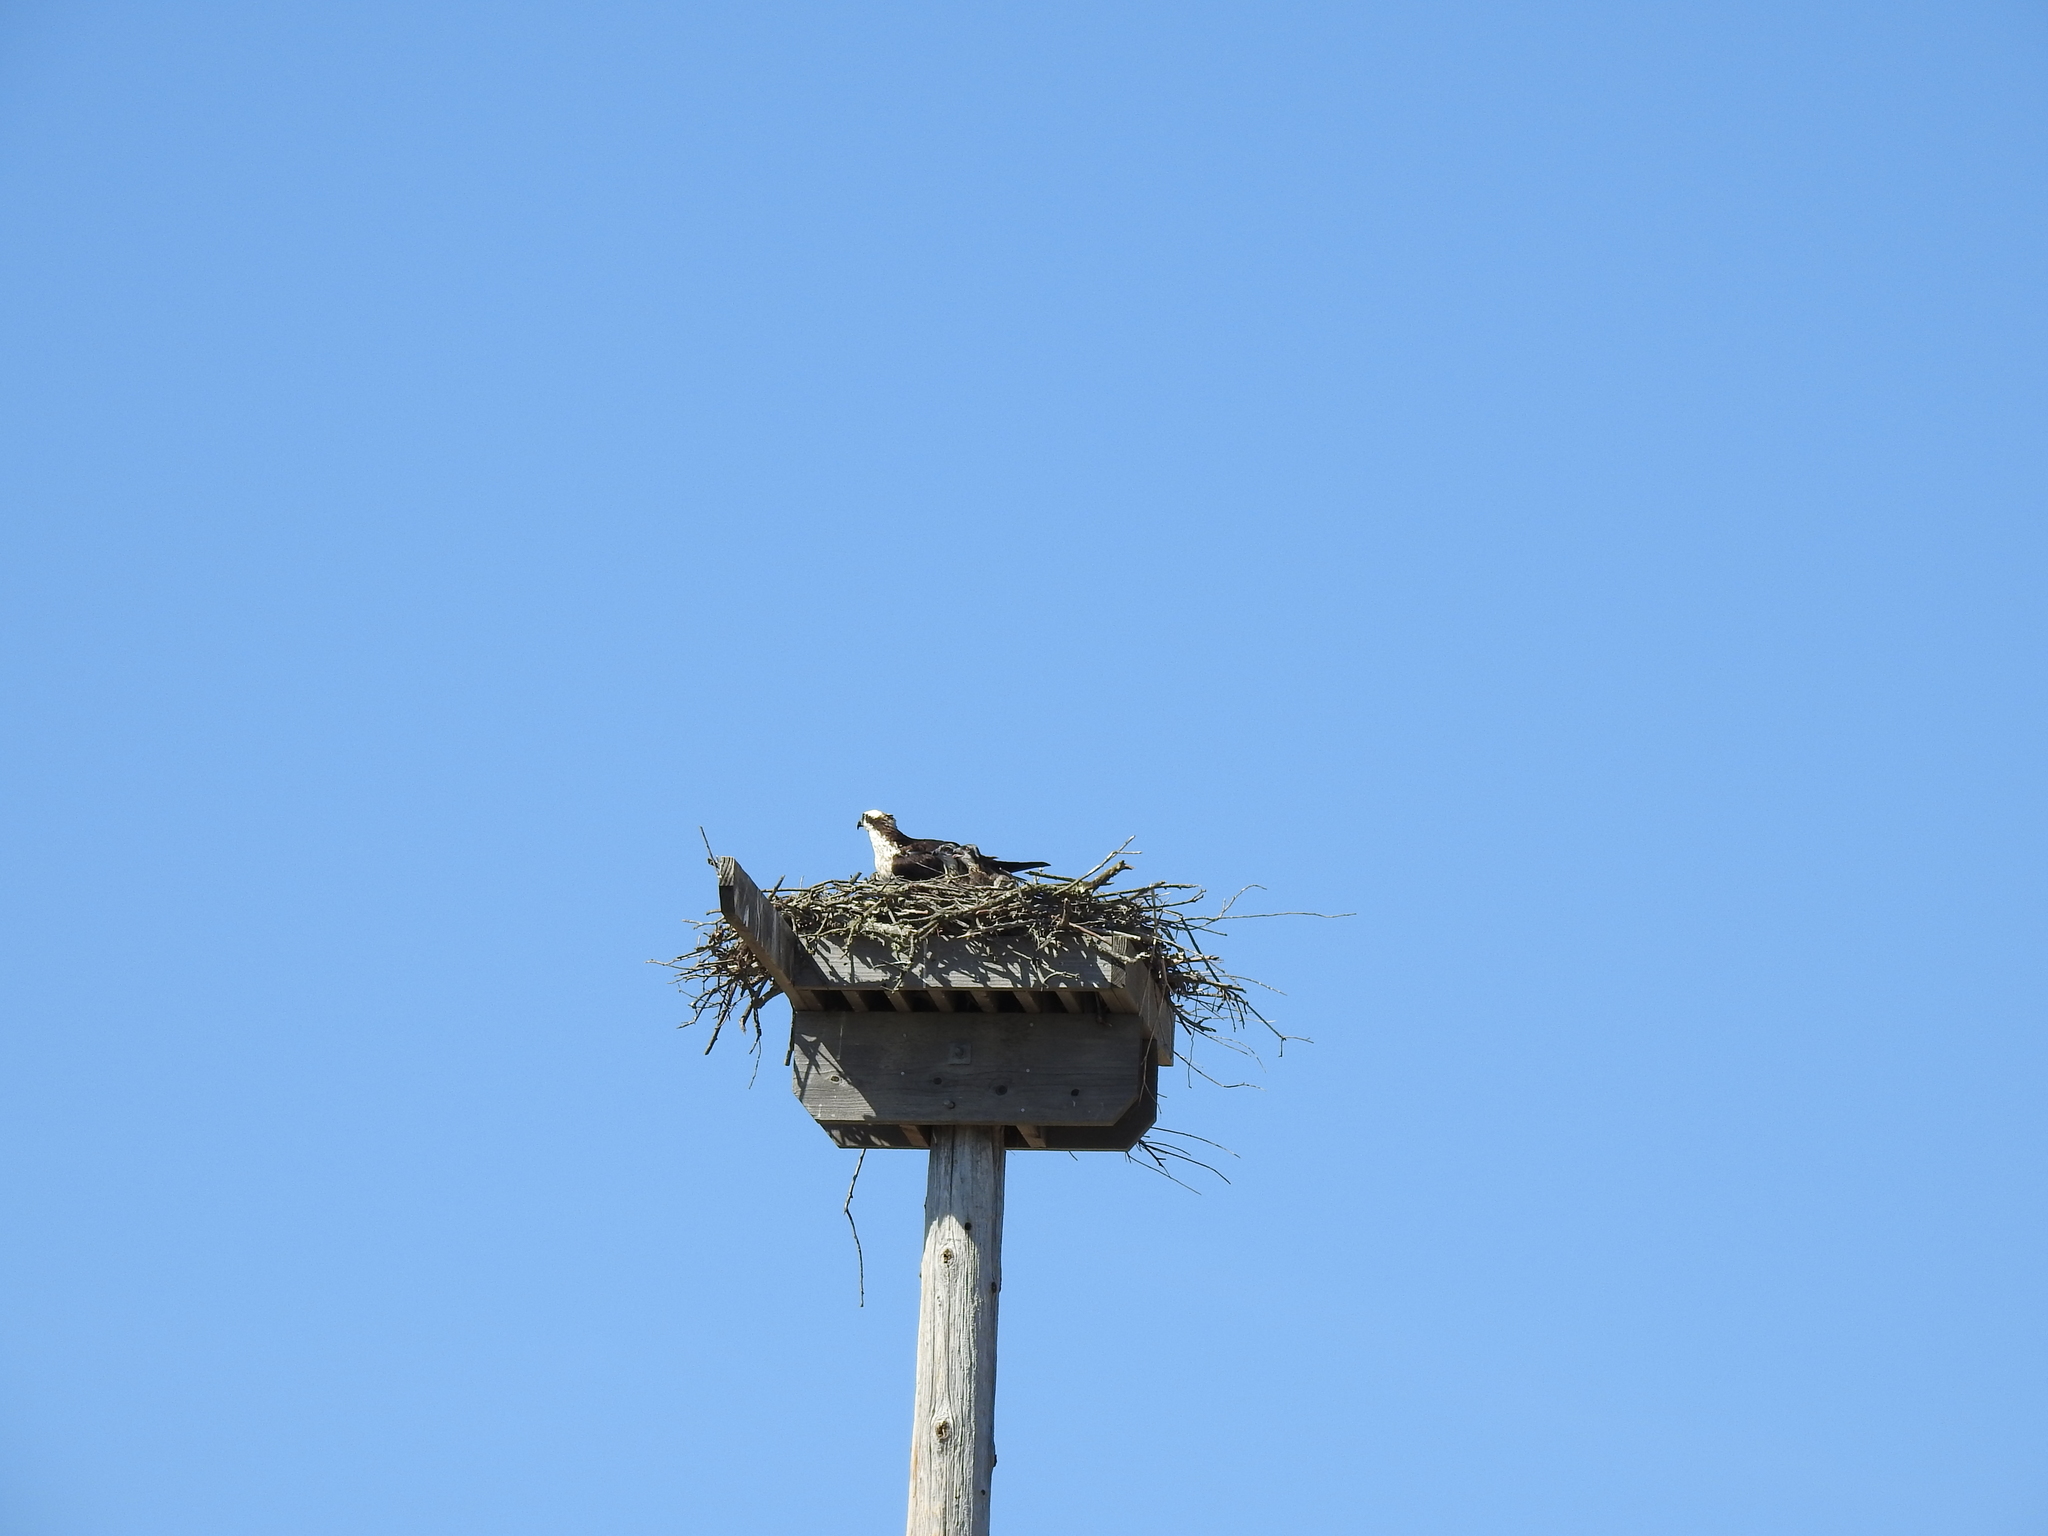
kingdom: Animalia
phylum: Chordata
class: Aves
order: Accipitriformes
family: Pandionidae
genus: Pandion
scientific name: Pandion haliaetus
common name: Osprey
